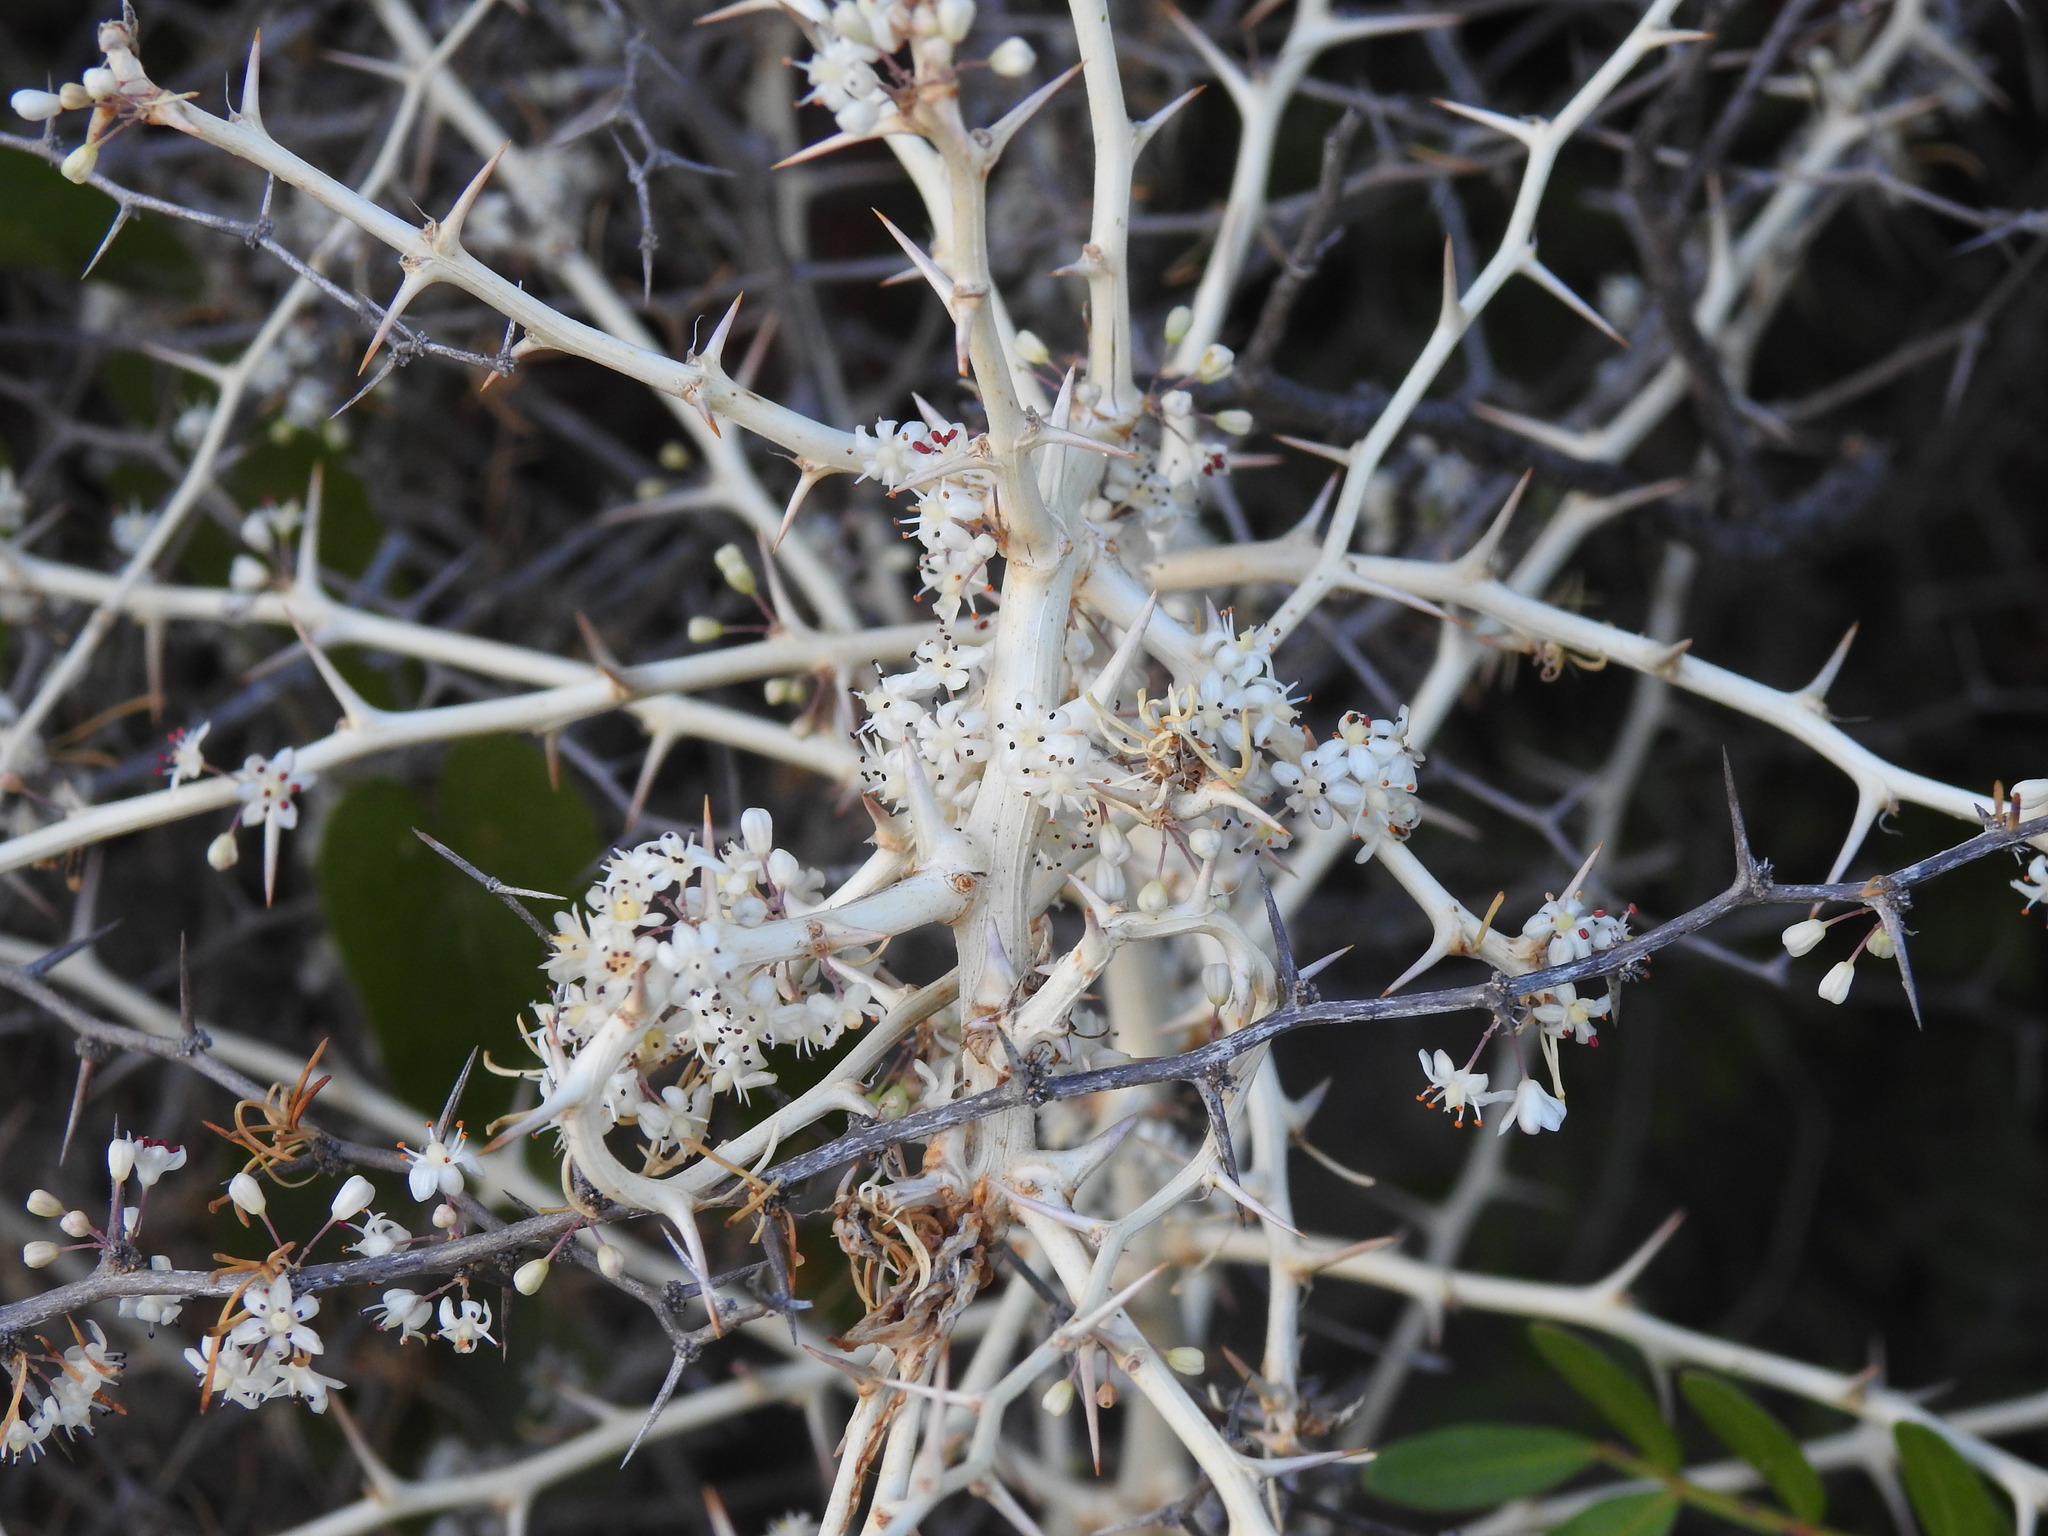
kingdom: Plantae
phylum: Tracheophyta
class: Liliopsida
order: Asparagales
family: Asparagaceae
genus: Asparagus
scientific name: Asparagus albus
